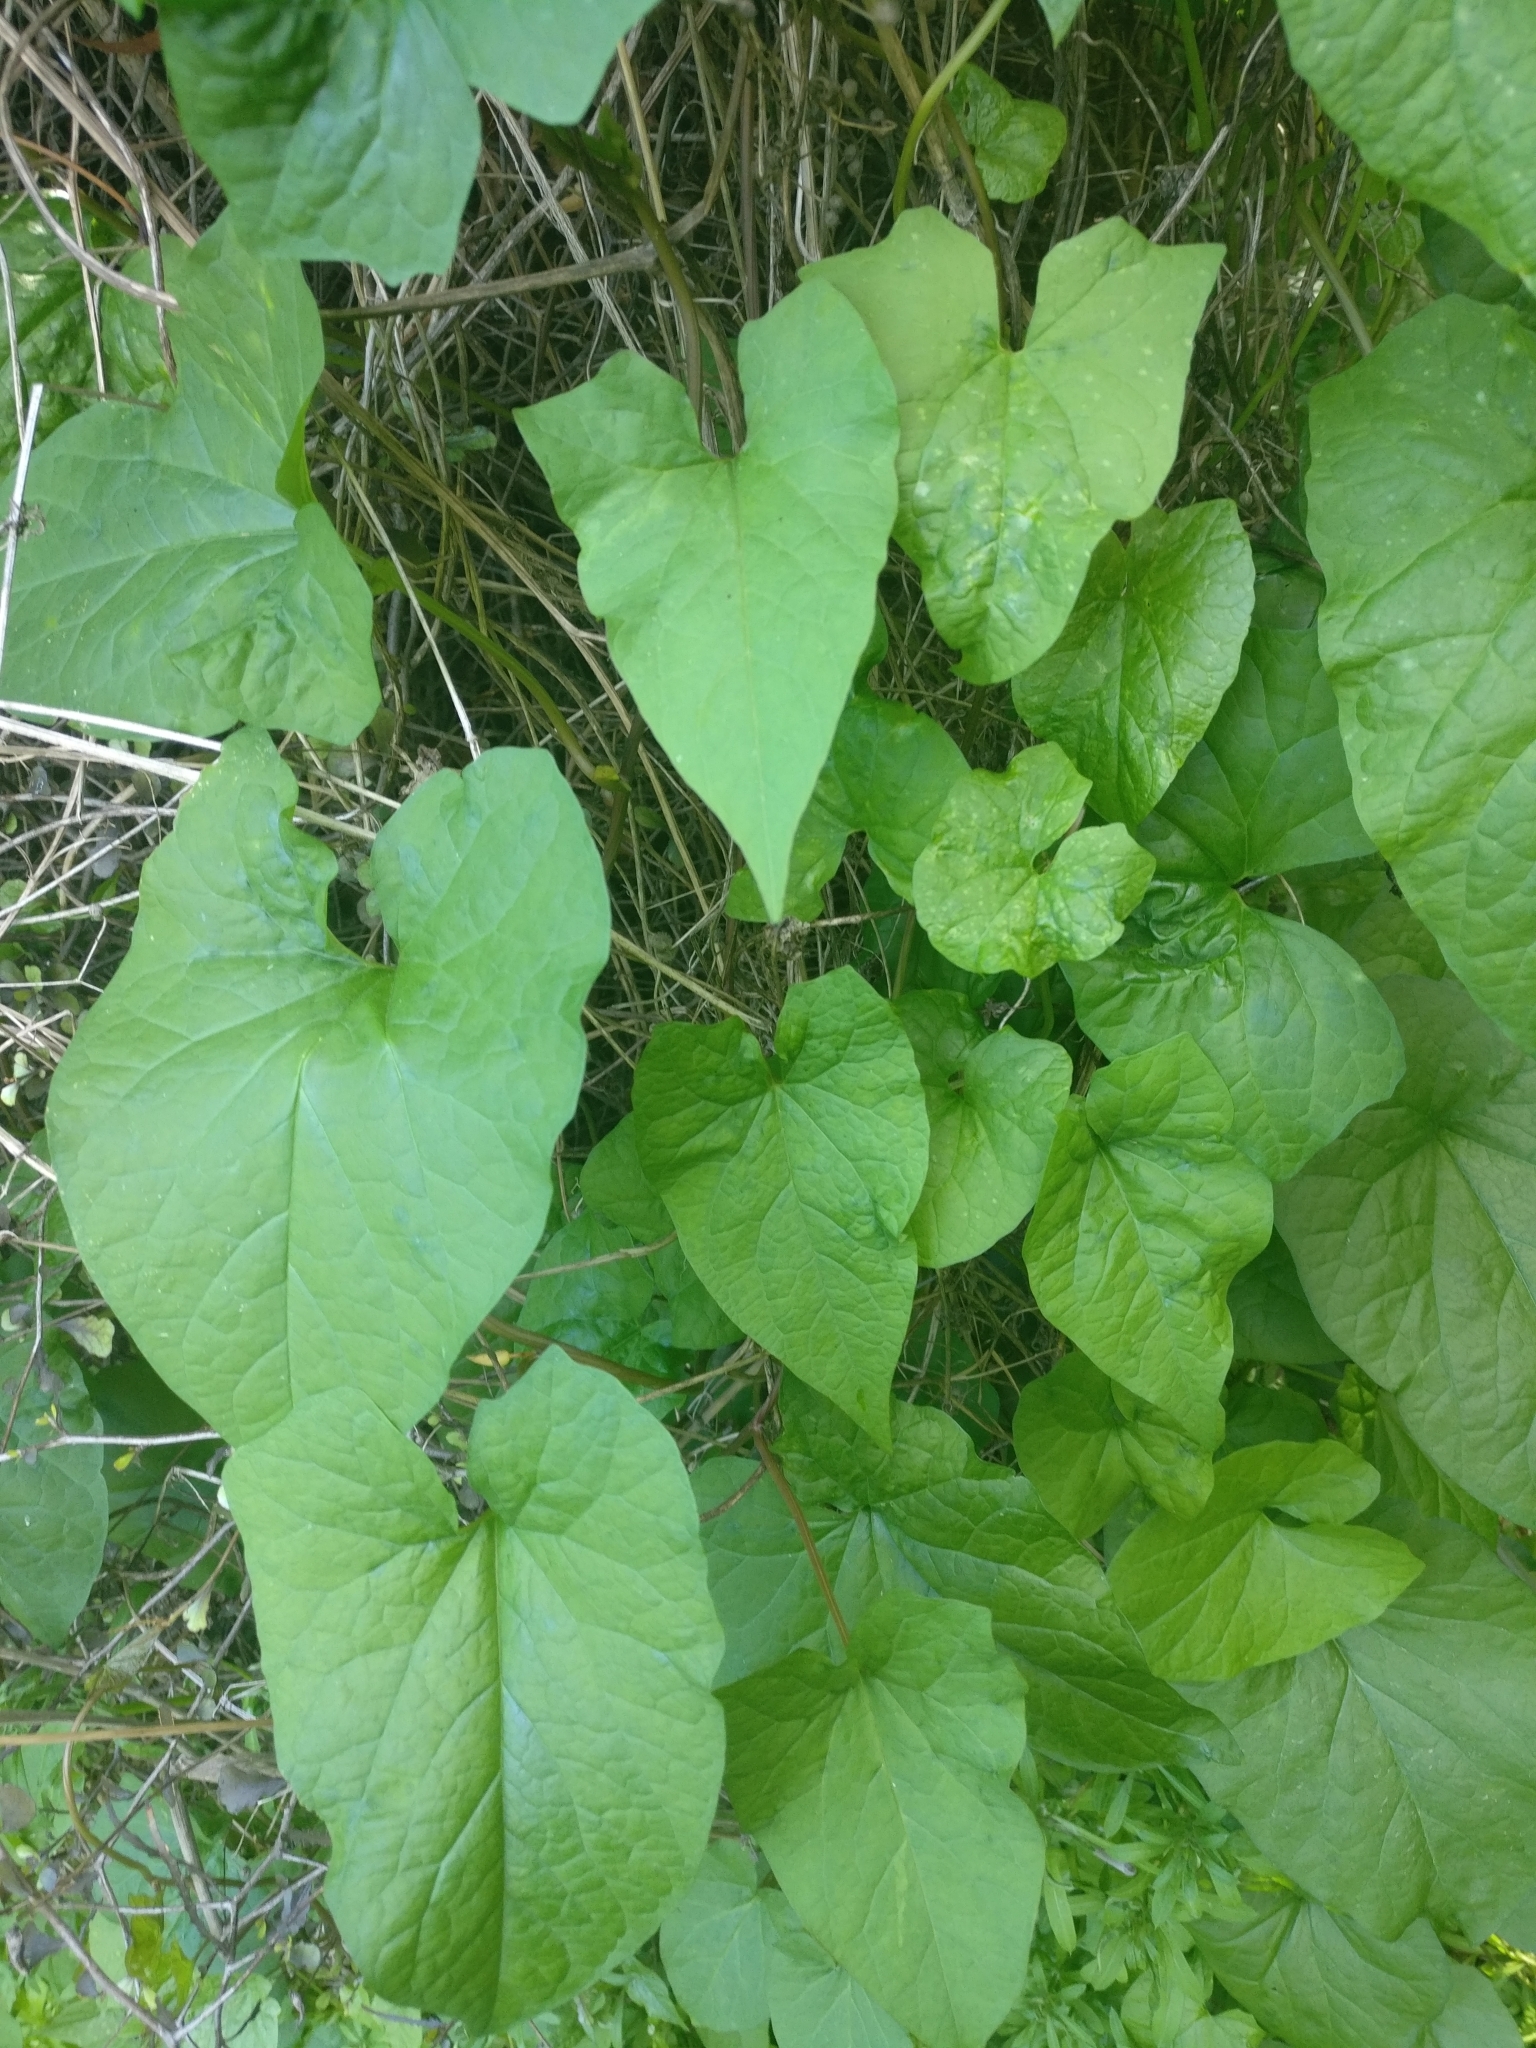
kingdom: Plantae
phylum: Tracheophyta
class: Magnoliopsida
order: Solanales
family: Convolvulaceae
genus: Calystegia
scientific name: Calystegia silvatica
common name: Large bindweed
